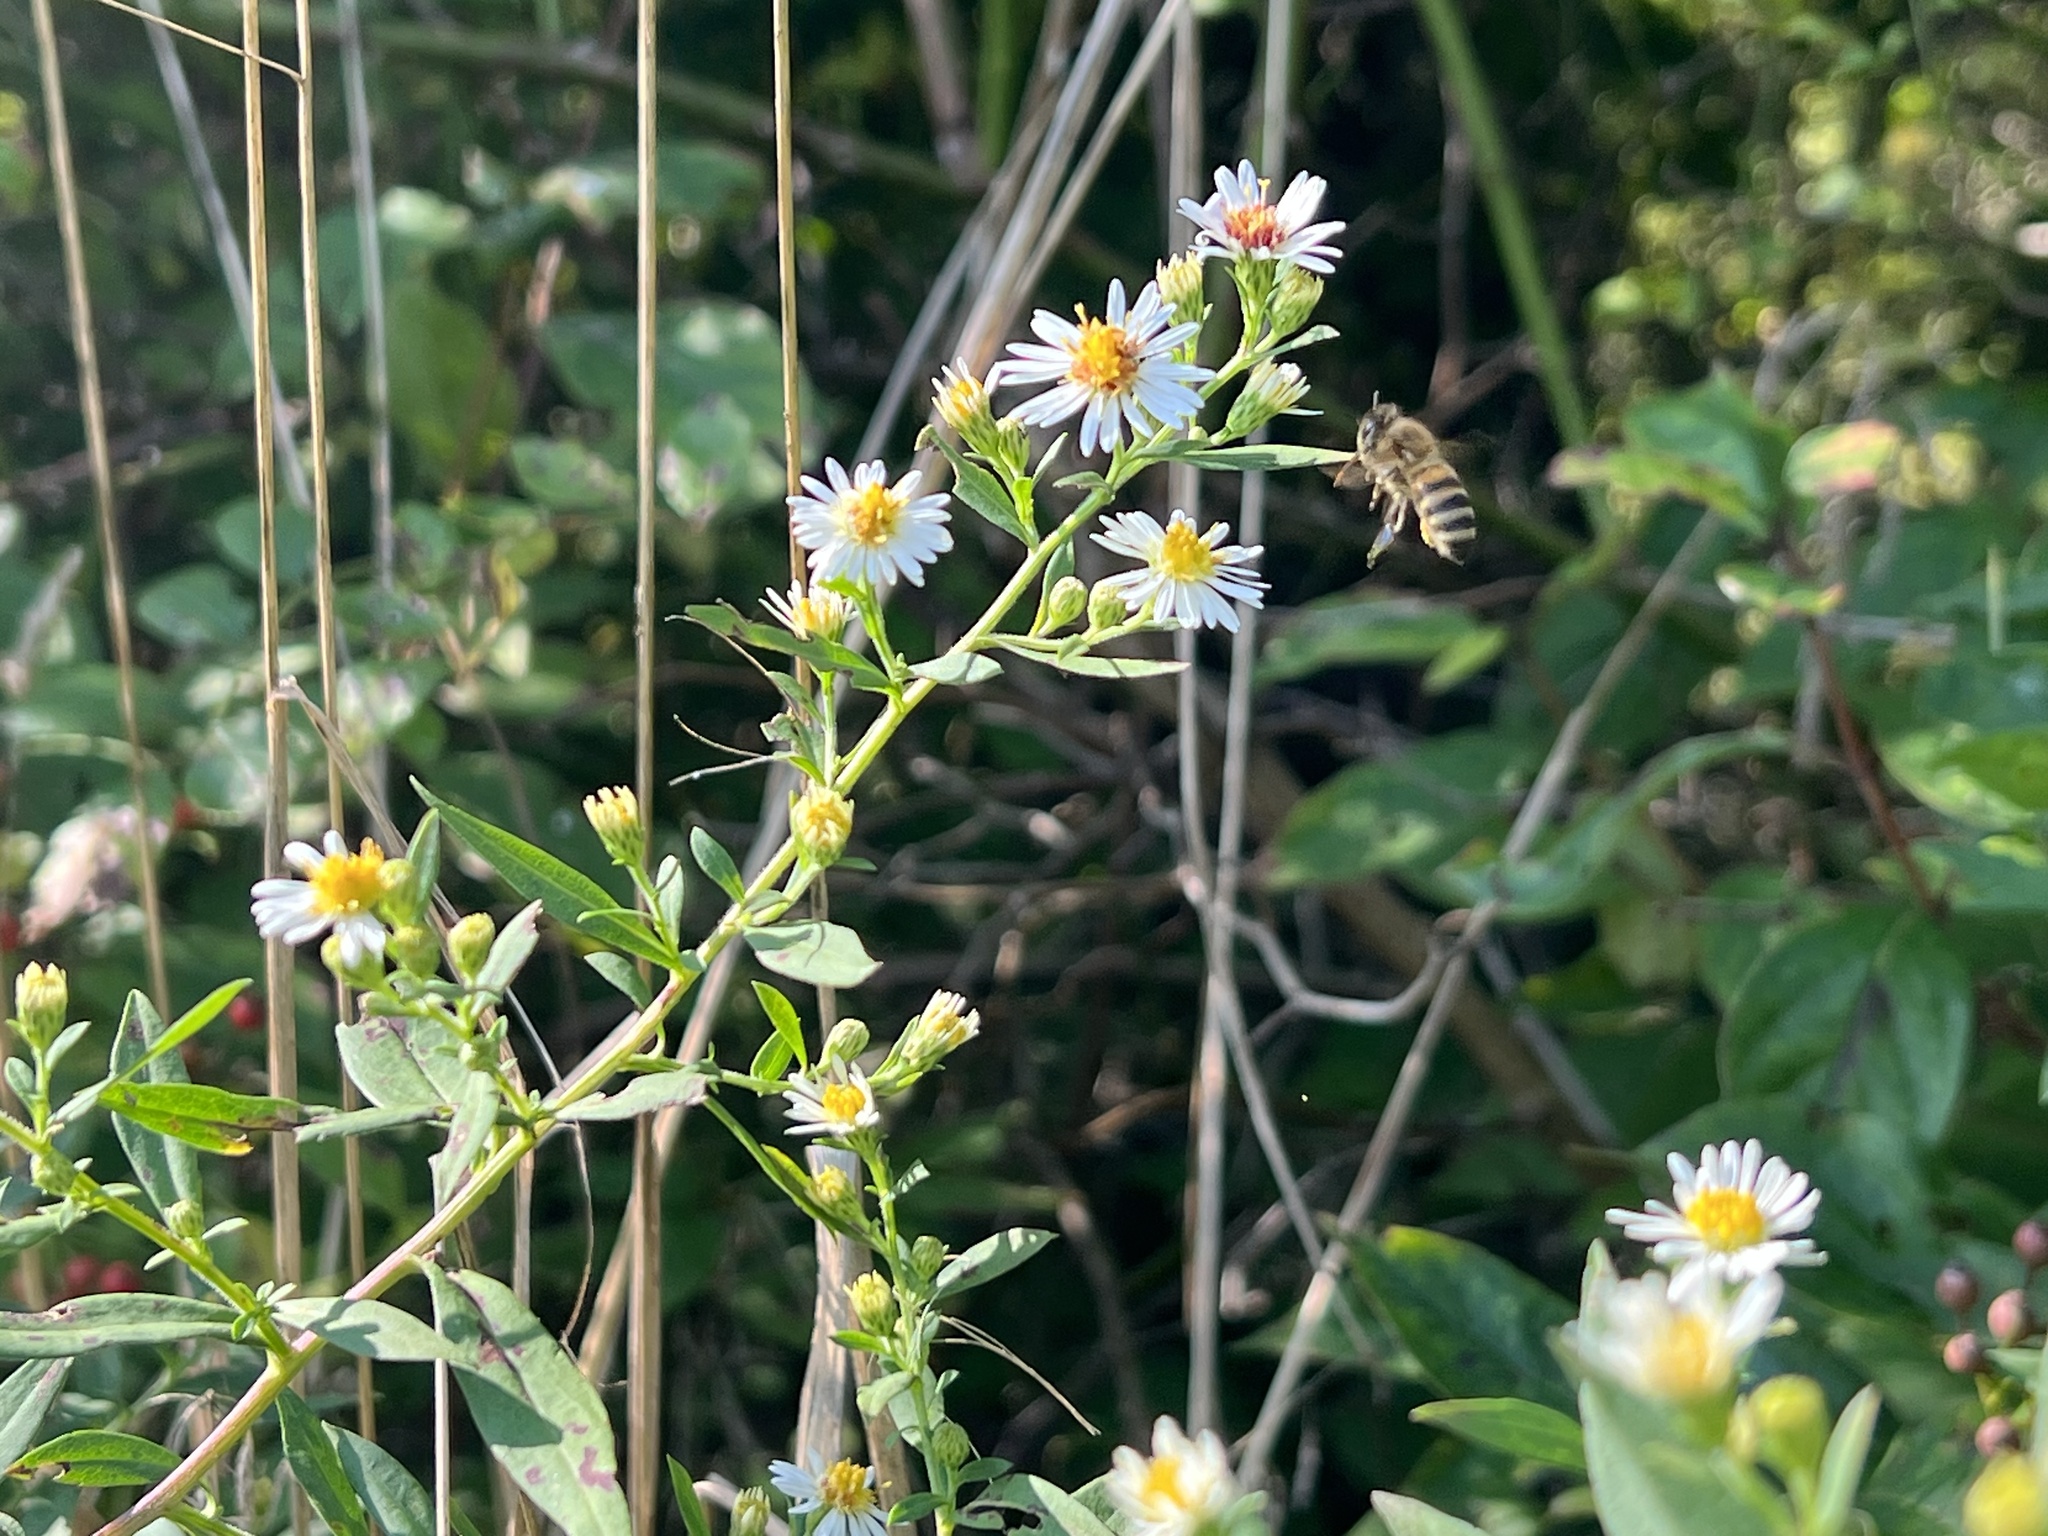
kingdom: Animalia
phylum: Arthropoda
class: Insecta
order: Hymenoptera
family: Apidae
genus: Apis
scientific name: Apis mellifera
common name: Honey bee
